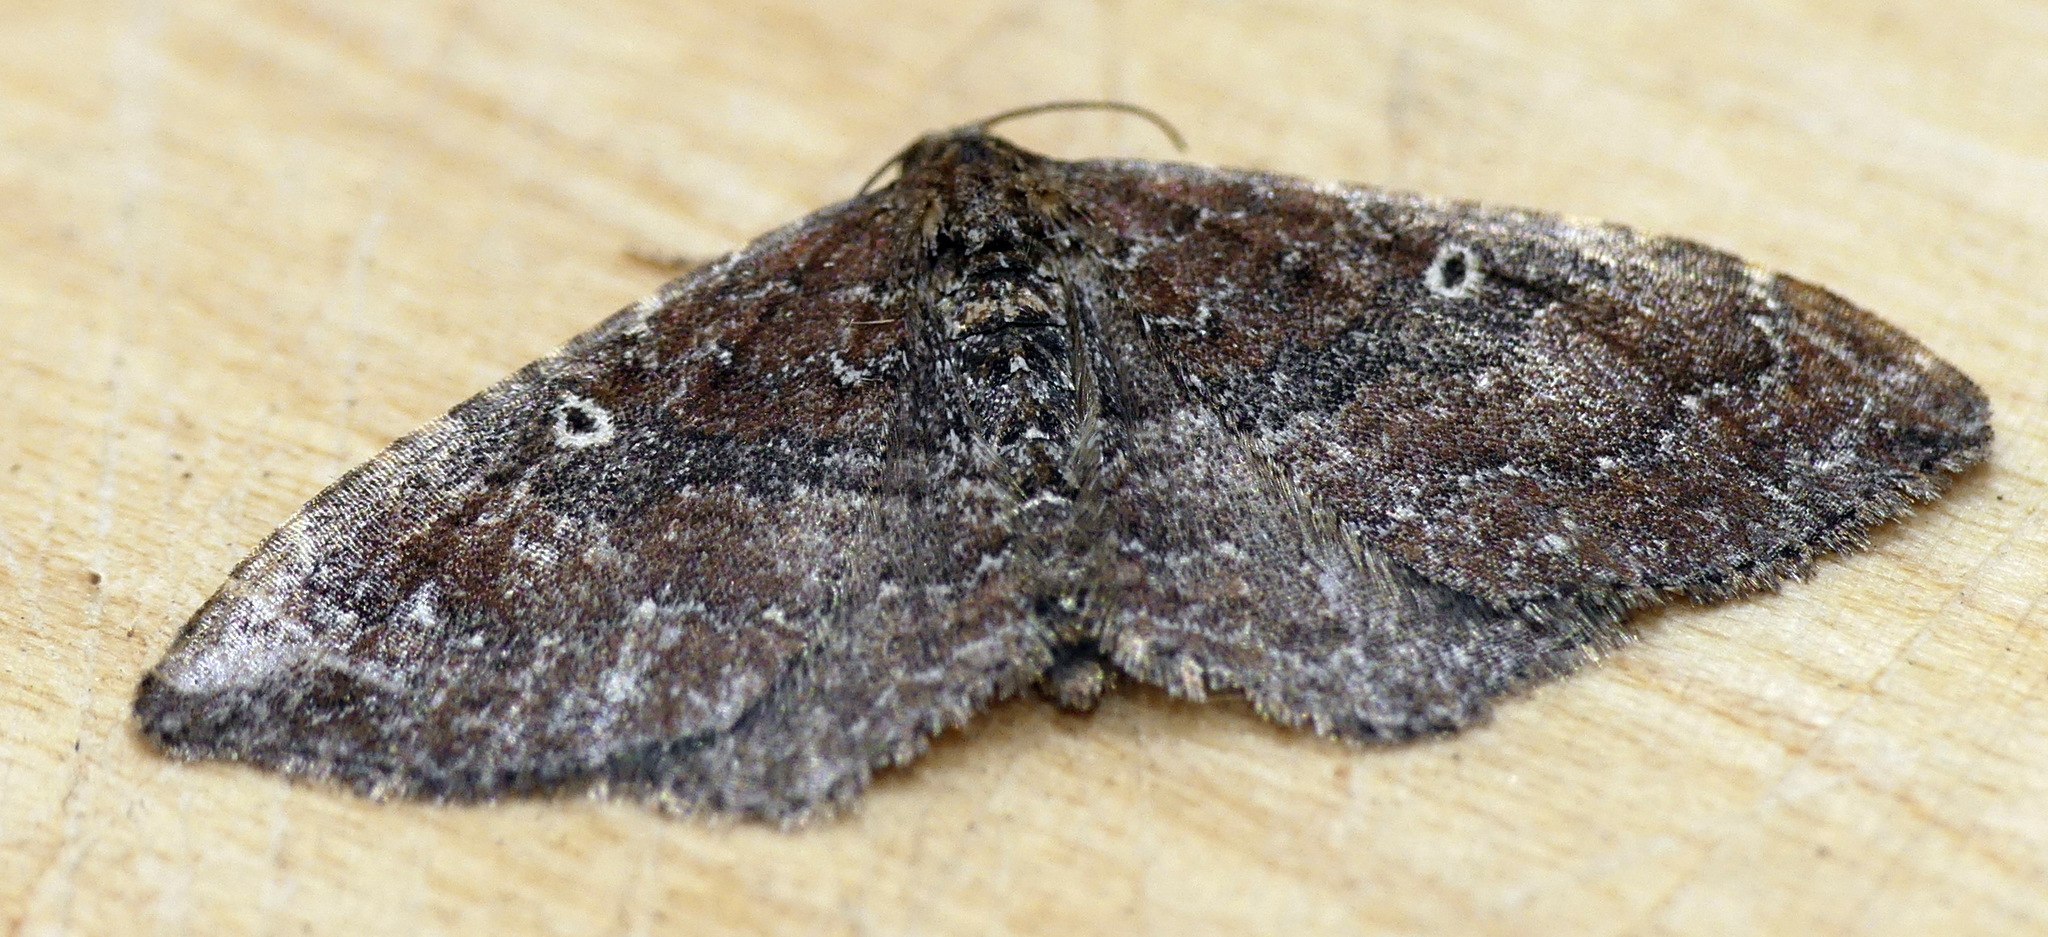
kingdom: Animalia
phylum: Arthropoda
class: Insecta
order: Lepidoptera
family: Geometridae
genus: Orthonama
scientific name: Orthonama obstipata
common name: The gem
